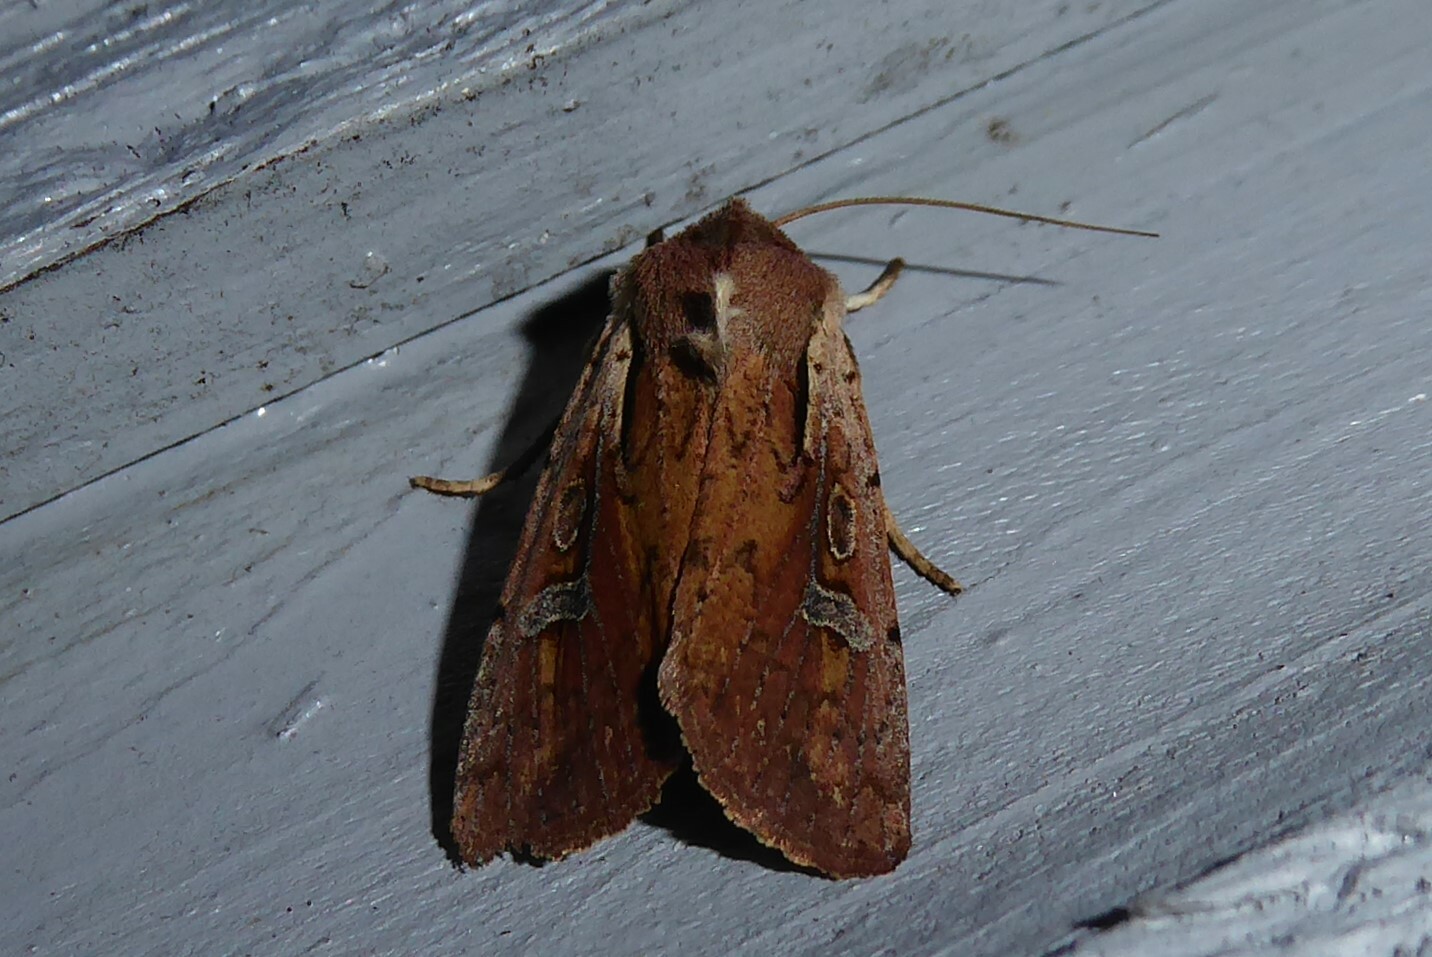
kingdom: Animalia
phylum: Arthropoda
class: Insecta
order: Lepidoptera
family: Noctuidae
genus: Ichneutica
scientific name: Ichneutica atristriga
